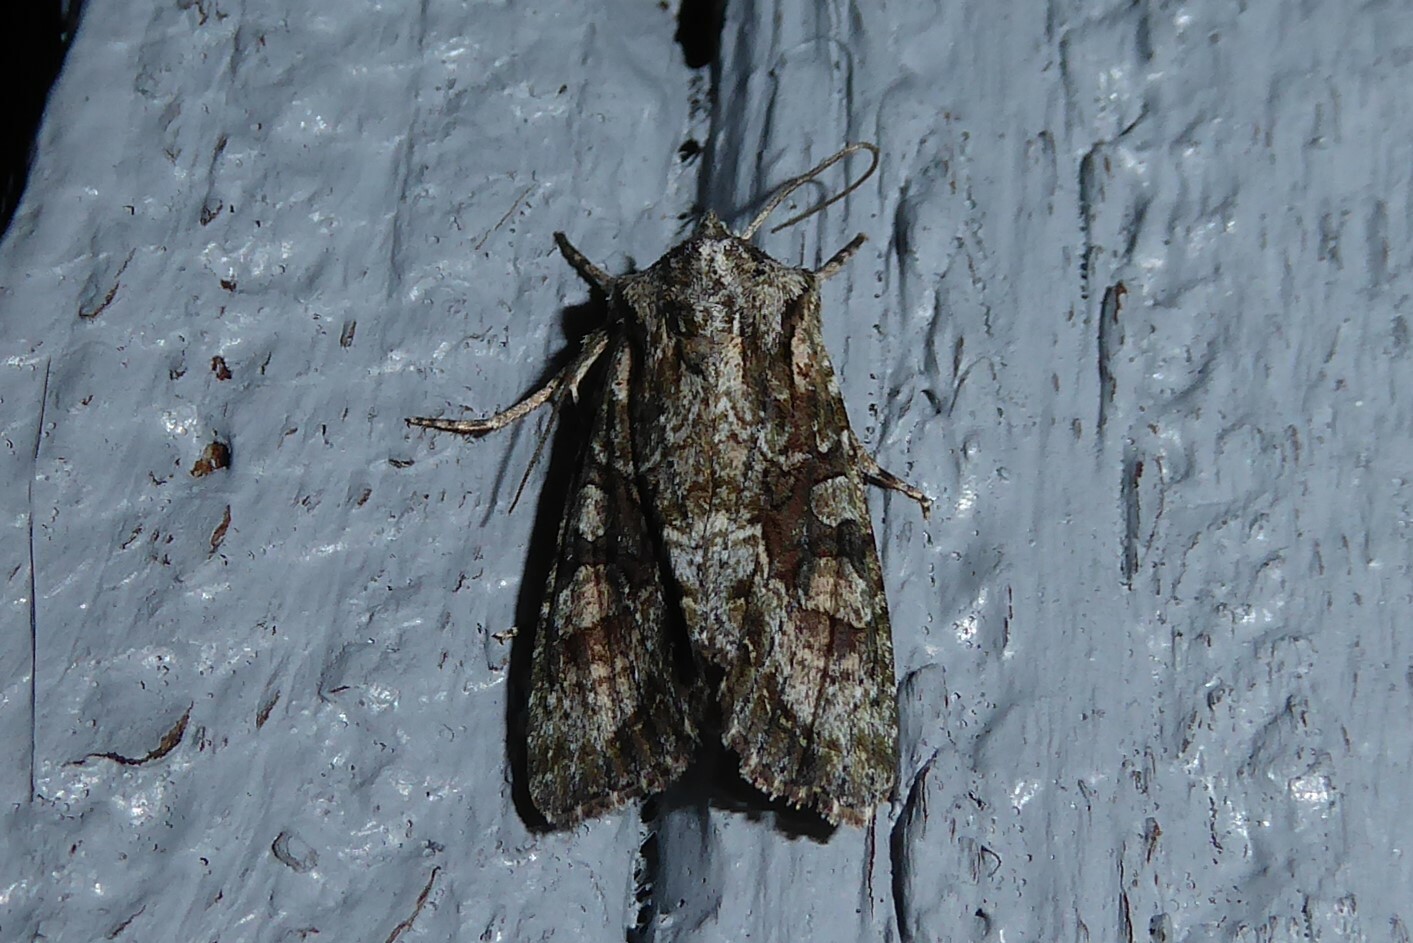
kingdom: Animalia
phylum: Arthropoda
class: Insecta
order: Lepidoptera
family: Noctuidae
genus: Ichneutica
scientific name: Ichneutica mutans
